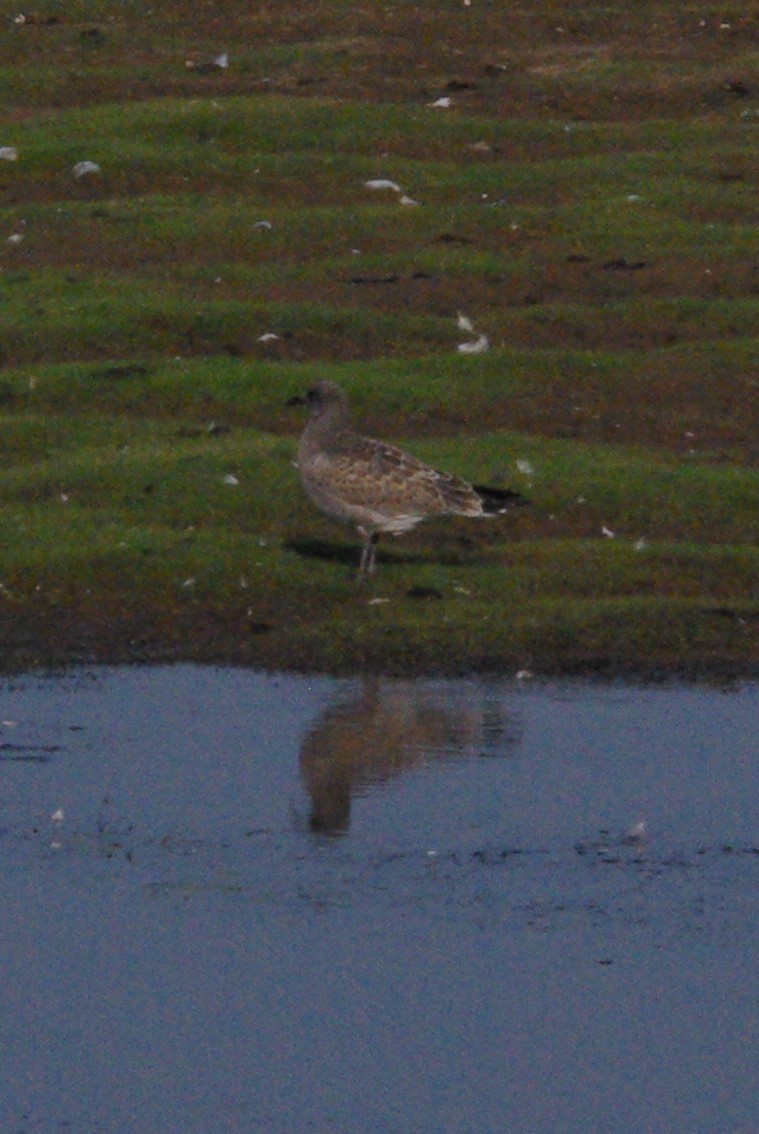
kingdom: Animalia
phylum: Chordata
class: Aves
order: Charadriiformes
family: Laridae
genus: Leucophaeus
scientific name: Leucophaeus atricilla
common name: Laughing gull
